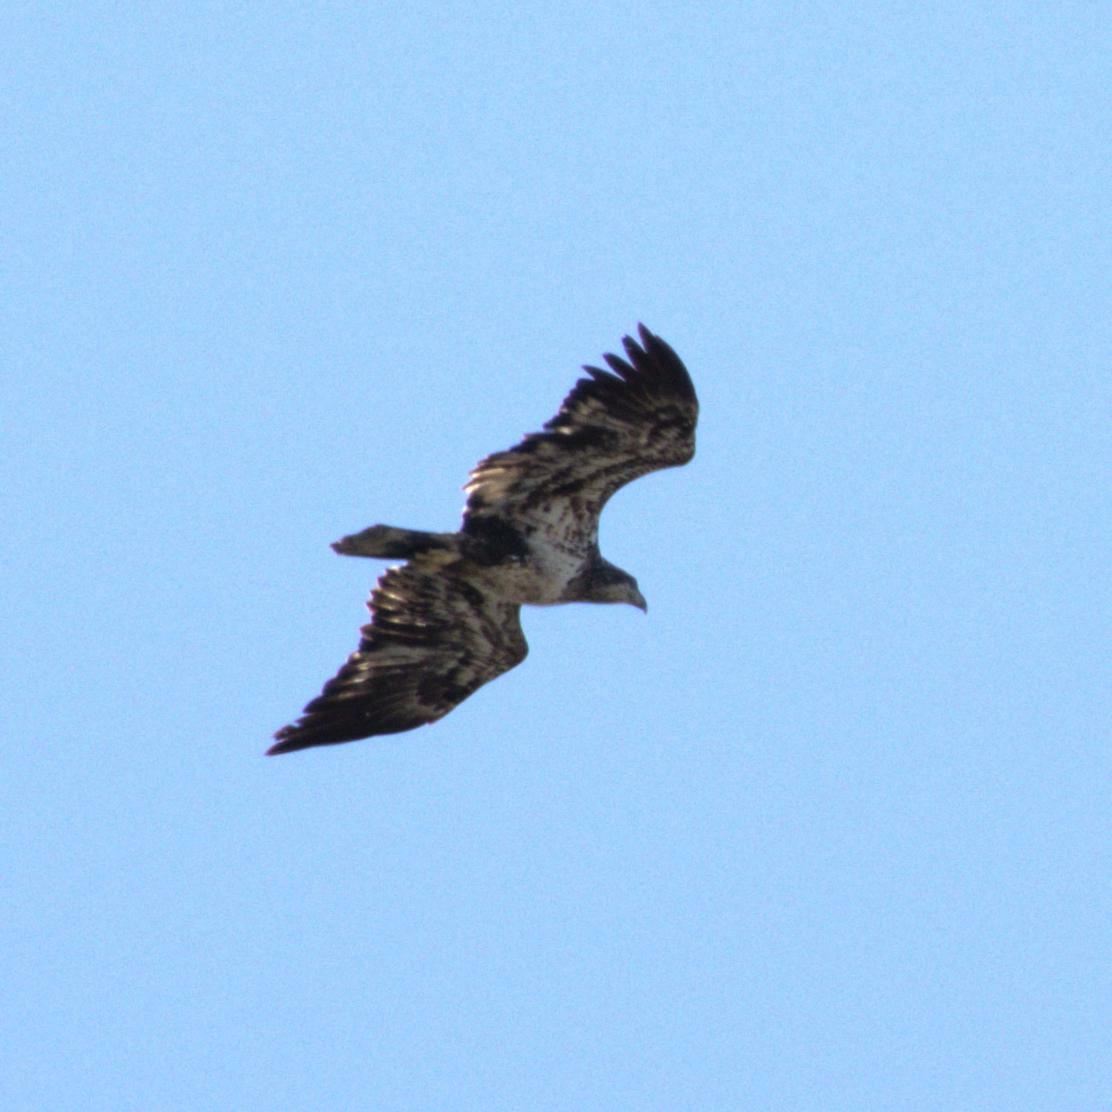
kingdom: Animalia
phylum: Chordata
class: Aves
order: Accipitriformes
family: Accipitridae
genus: Haliaeetus
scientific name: Haliaeetus leucocephalus
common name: Bald eagle
